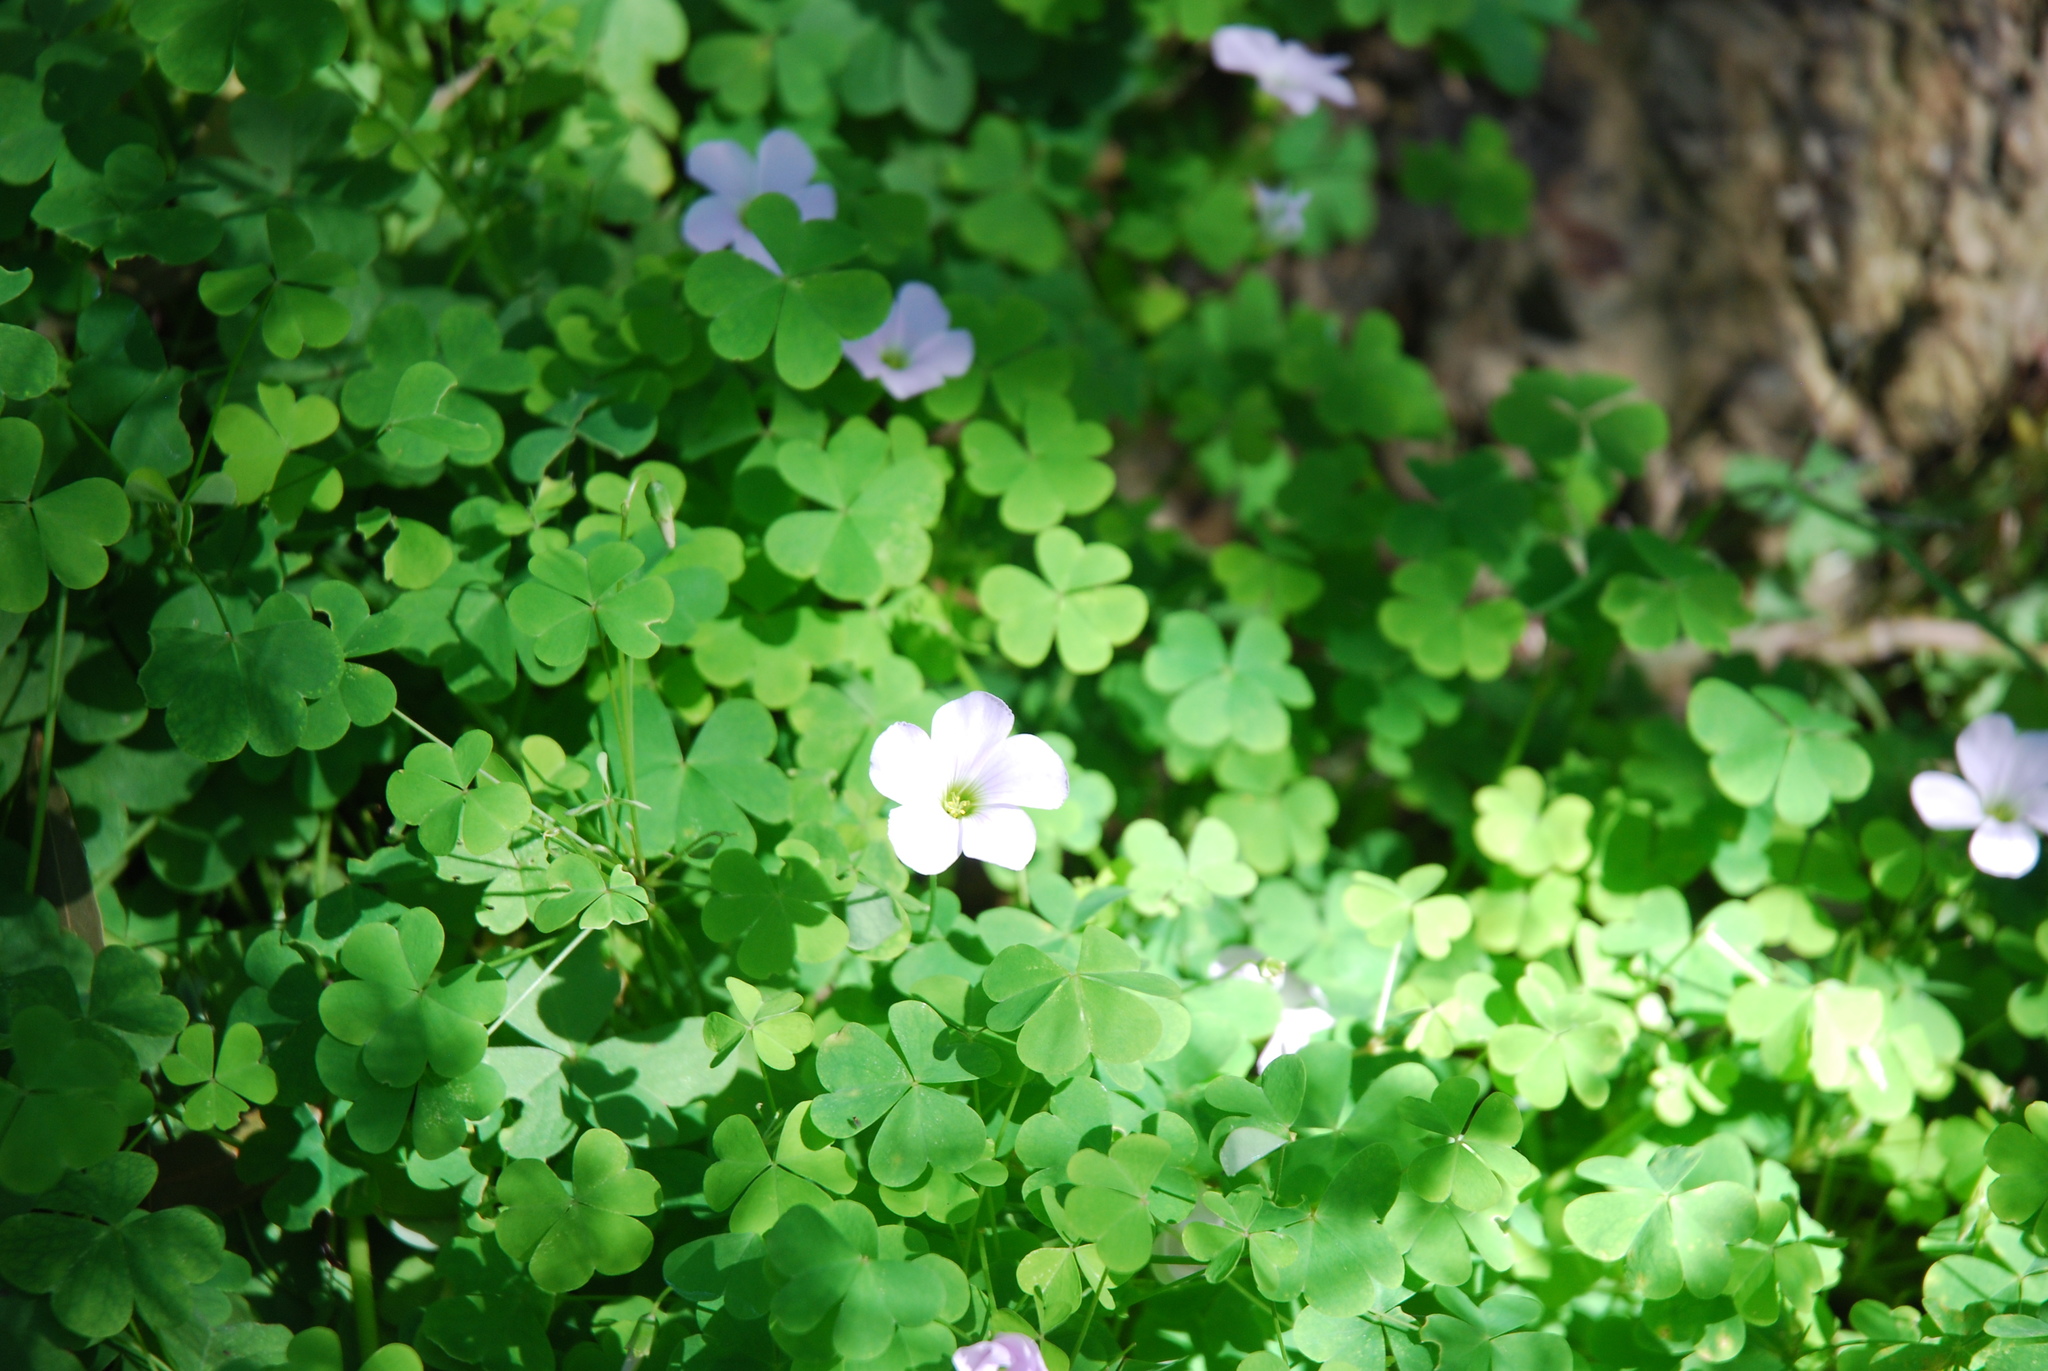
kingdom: Plantae
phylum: Tracheophyta
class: Magnoliopsida
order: Oxalidales
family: Oxalidaceae
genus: Oxalis
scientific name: Oxalis incarnata
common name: Pale pink-sorrel
